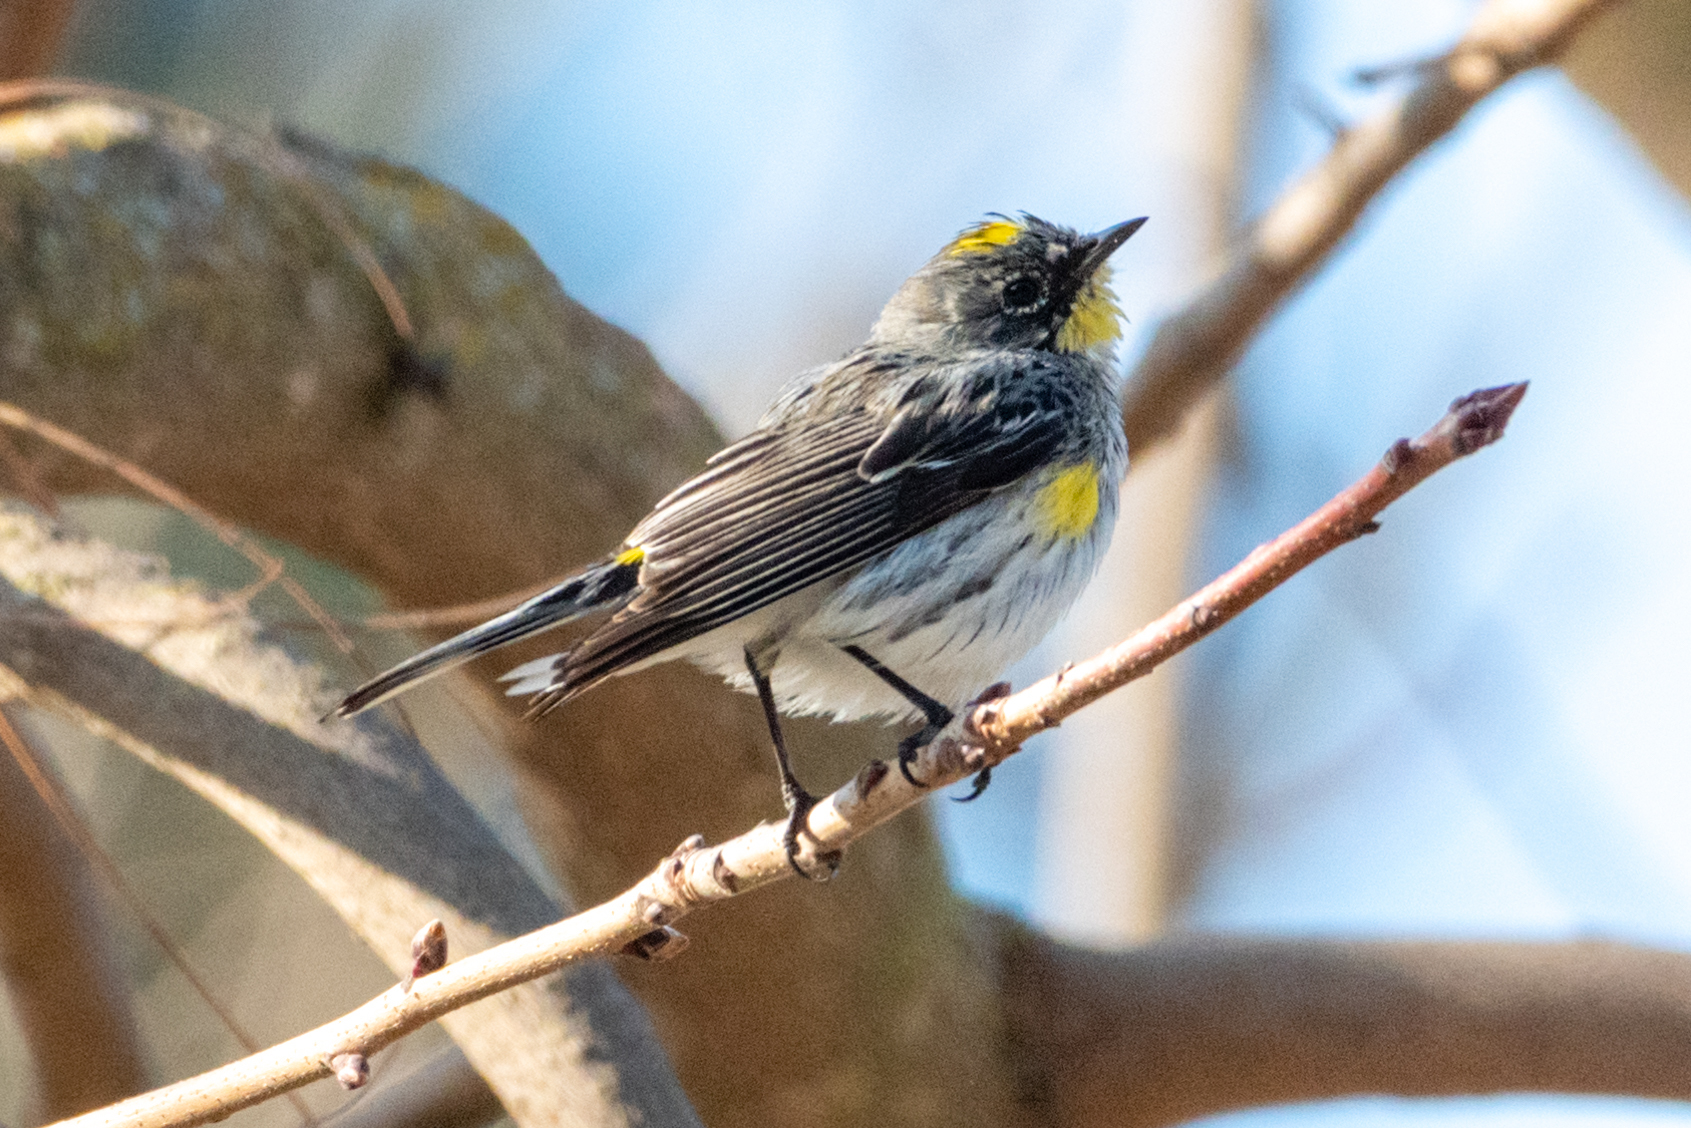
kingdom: Animalia
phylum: Chordata
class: Aves
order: Passeriformes
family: Parulidae
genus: Setophaga
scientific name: Setophaga coronata
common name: Myrtle warbler
